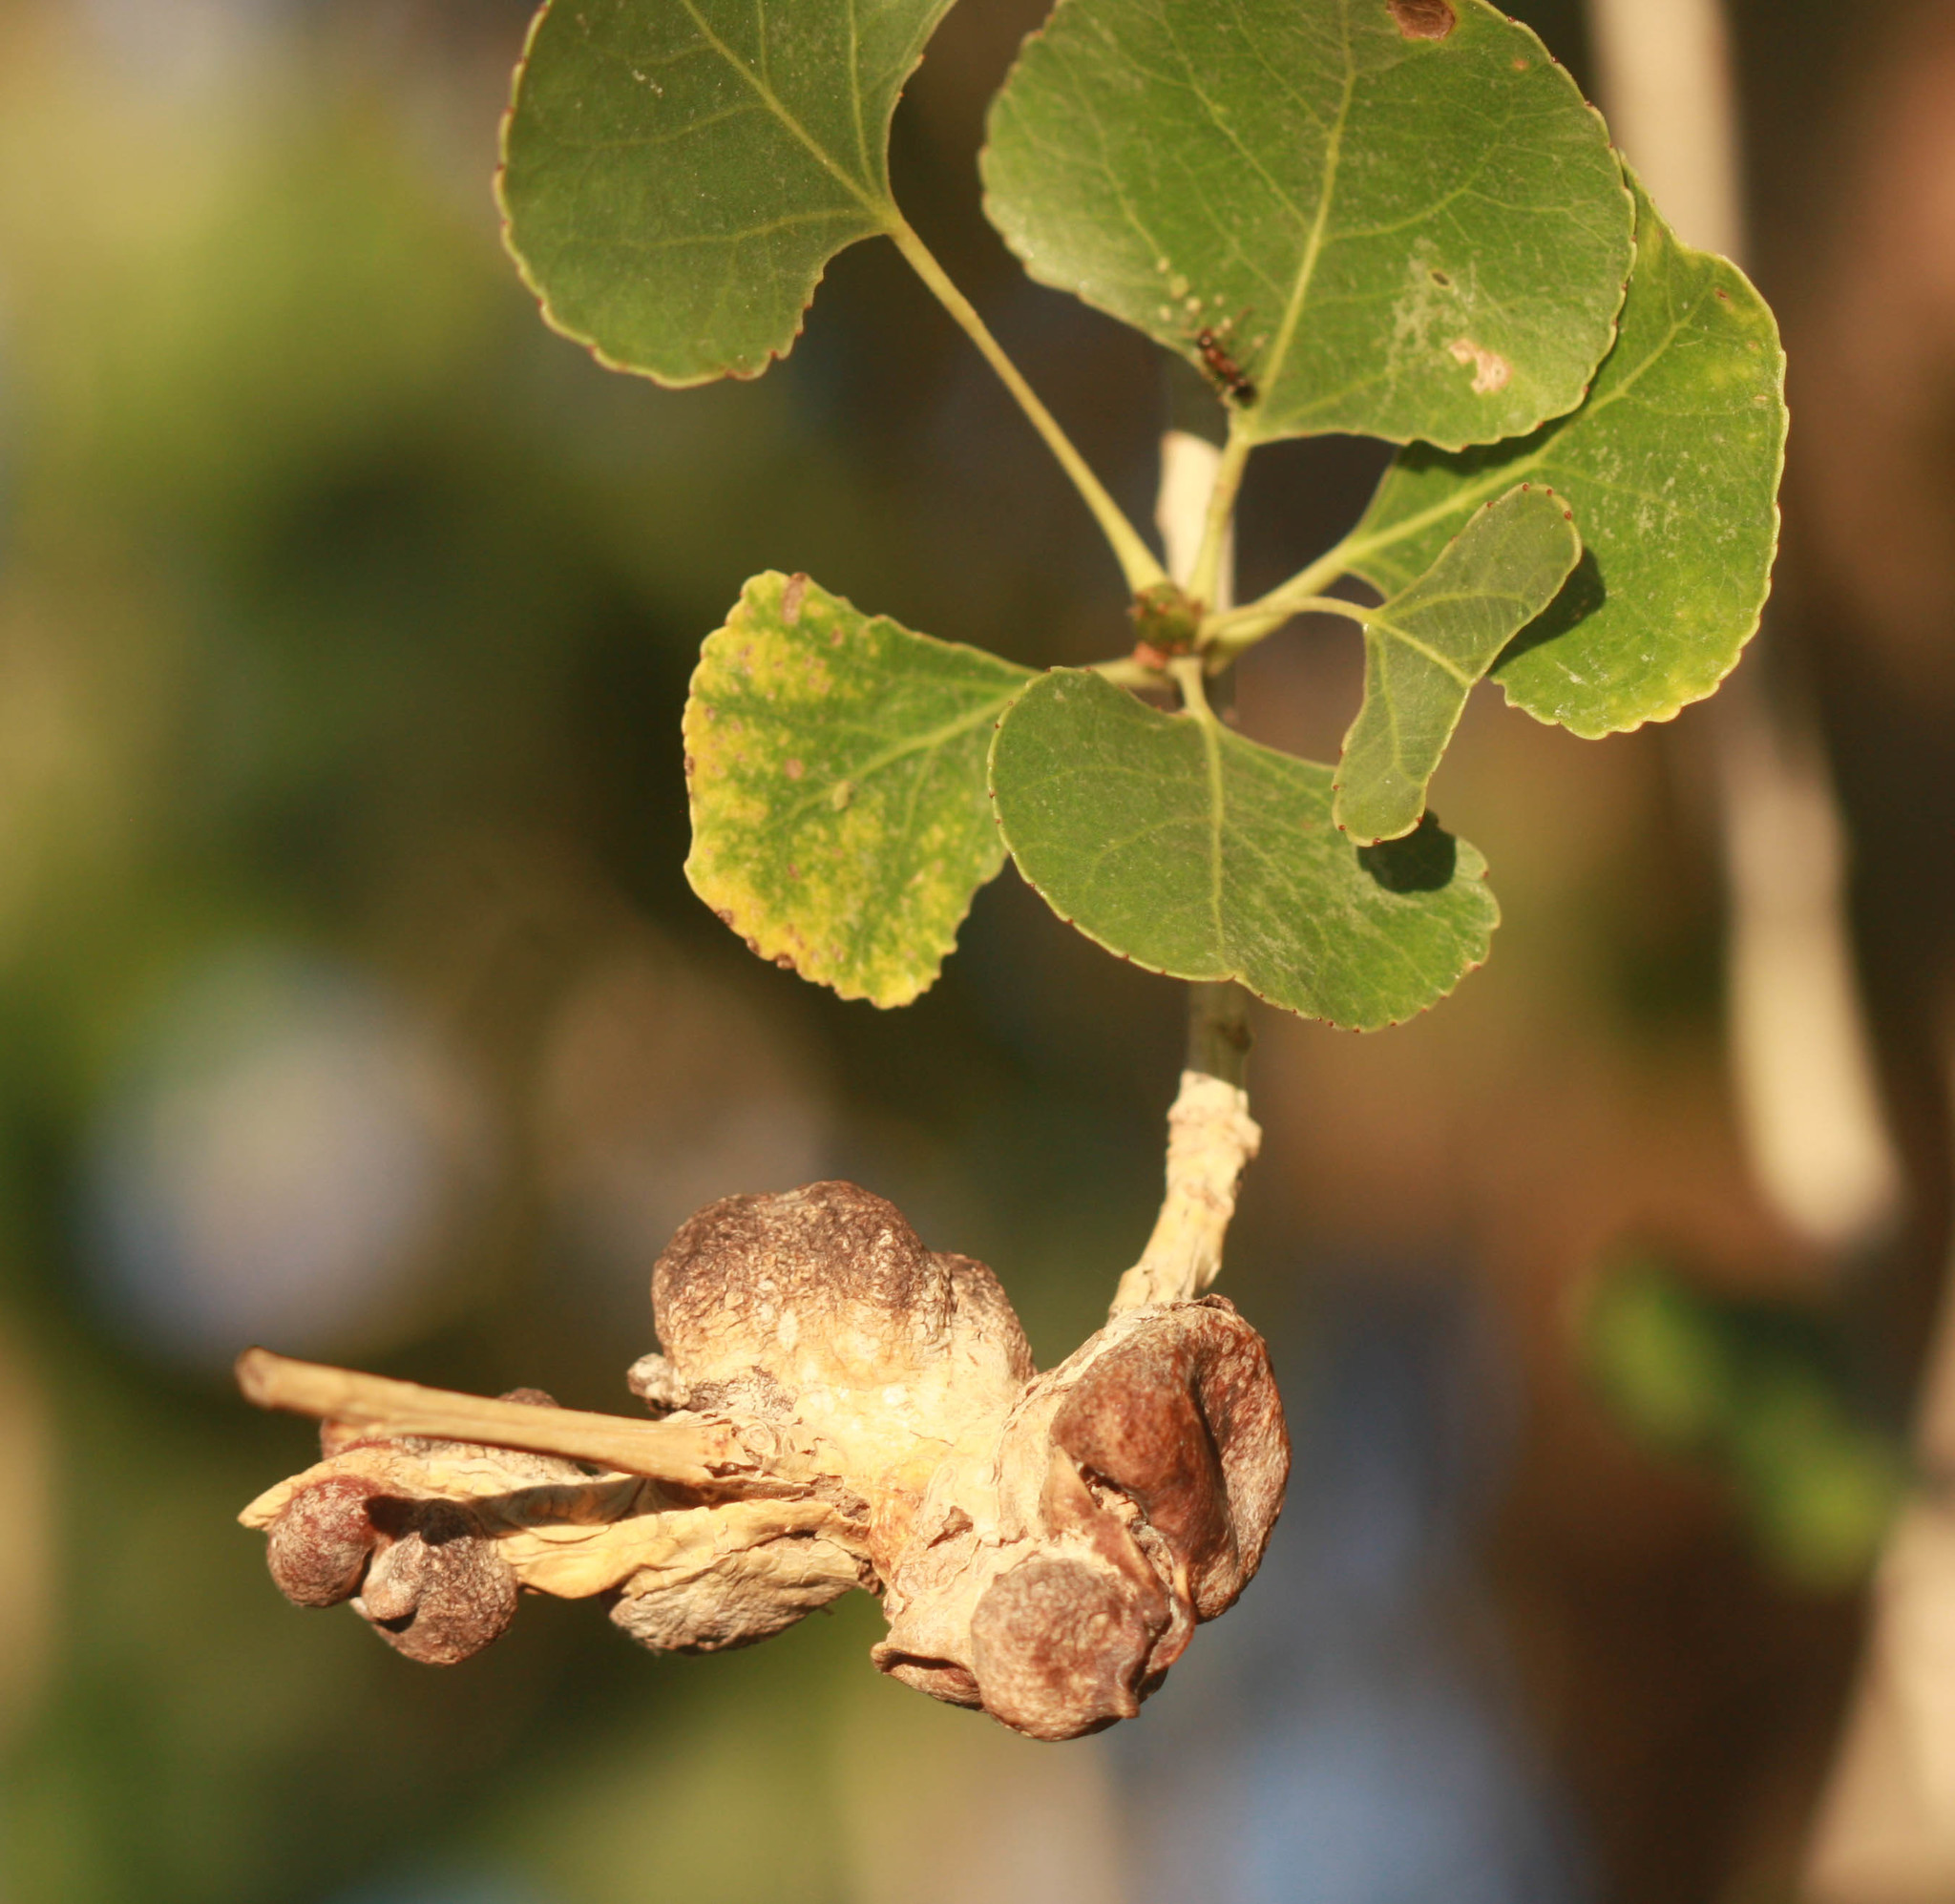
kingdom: Animalia
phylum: Arthropoda
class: Insecta
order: Hemiptera
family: Aphididae
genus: Pemphigus
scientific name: Pemphigus populiramulorum
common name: Poplar twig gall aphid
